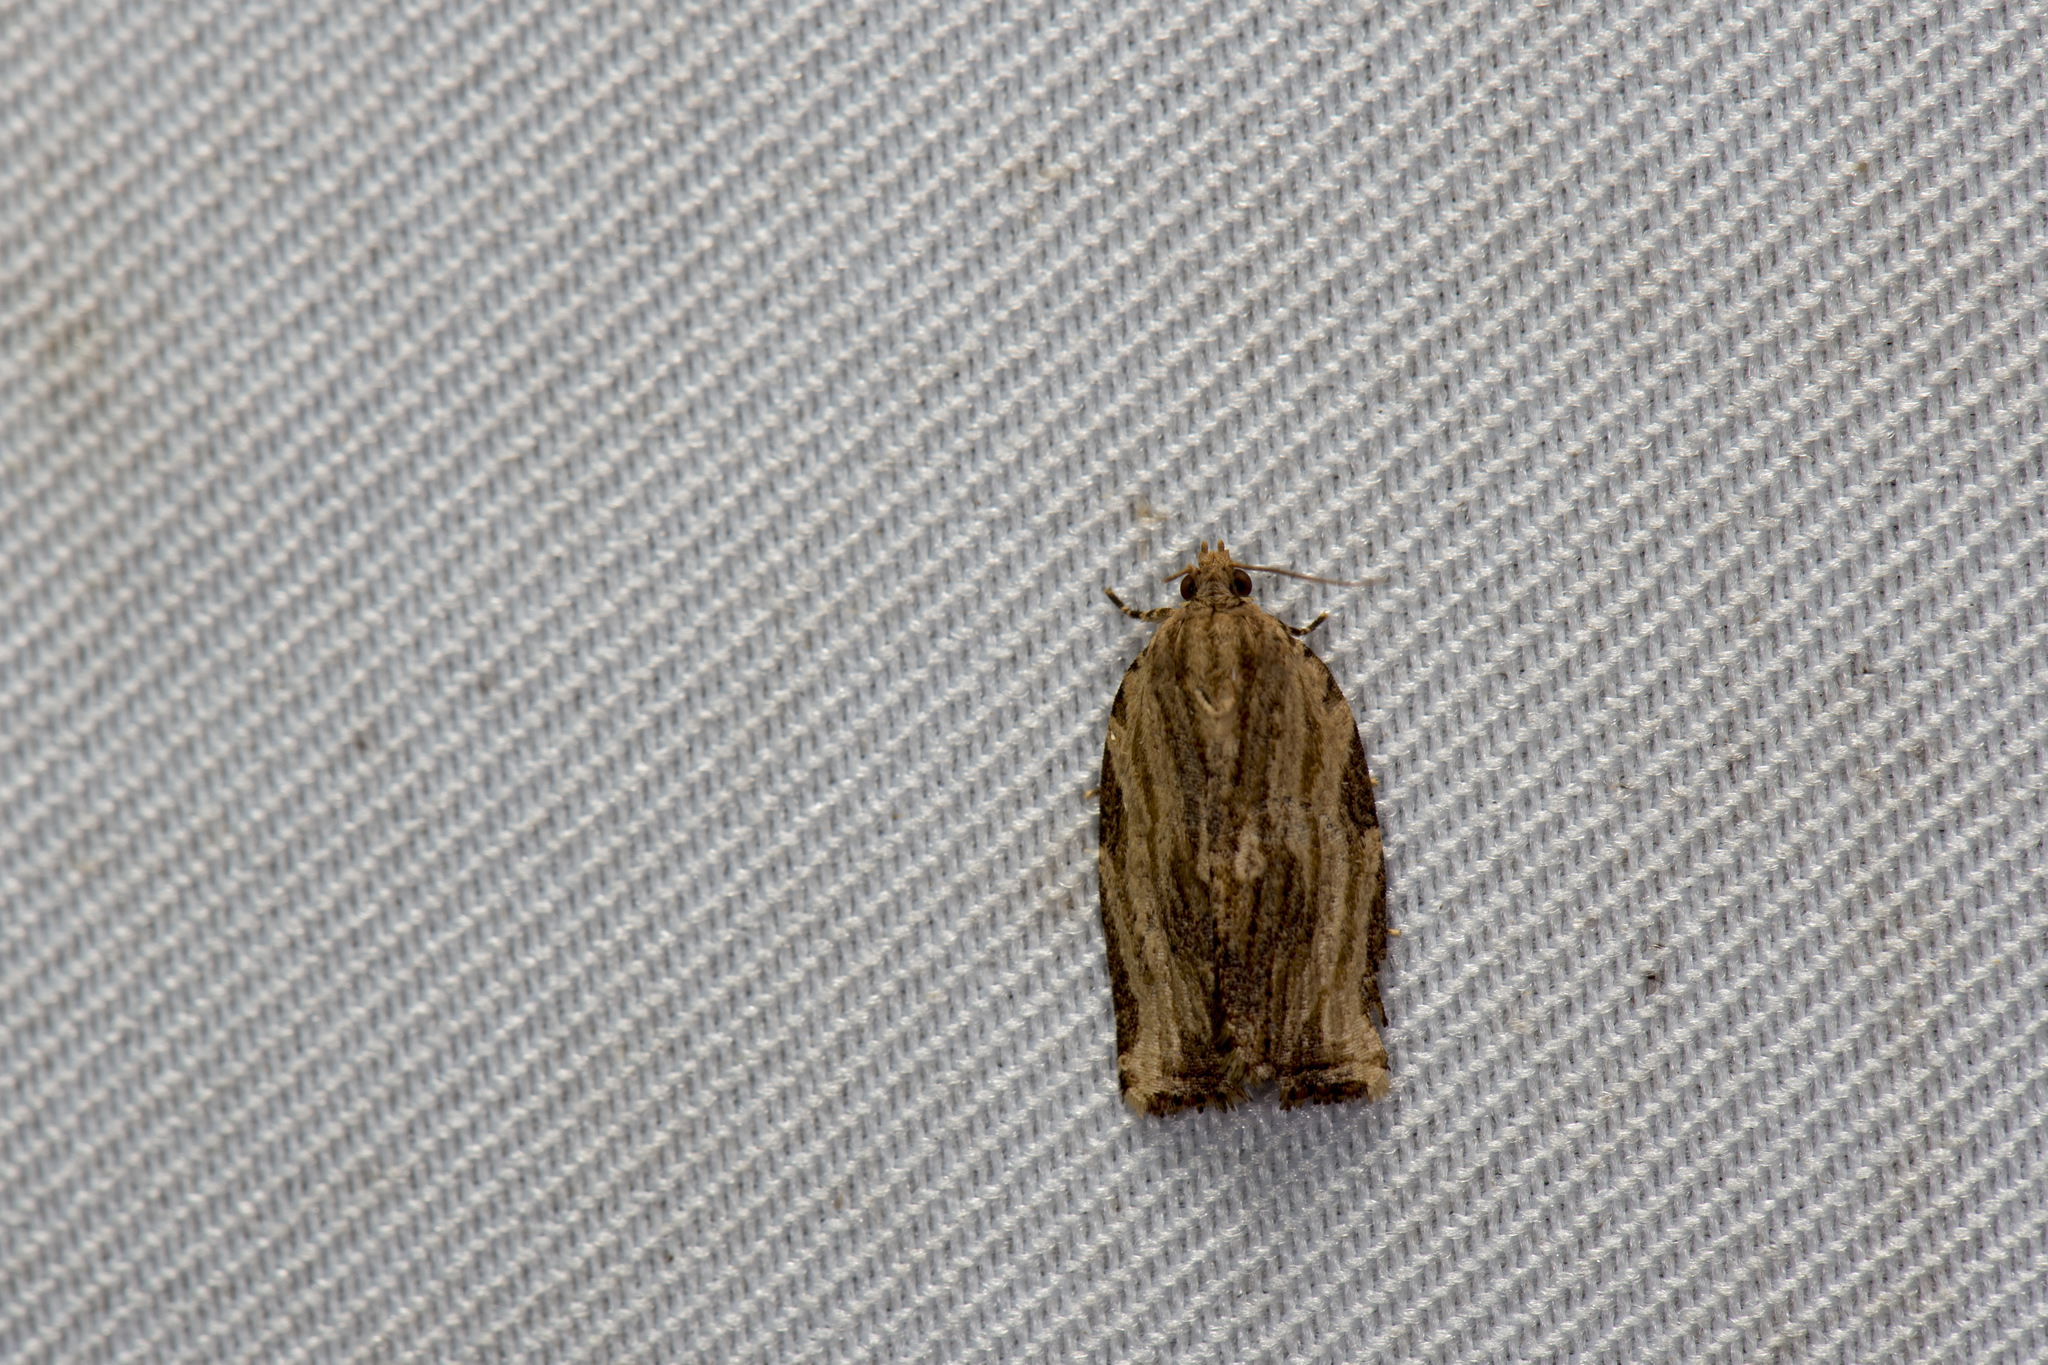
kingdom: Animalia
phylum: Arthropoda
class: Insecta
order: Lepidoptera
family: Tortricidae
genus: Isodemis
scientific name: Isodemis serpentinana
